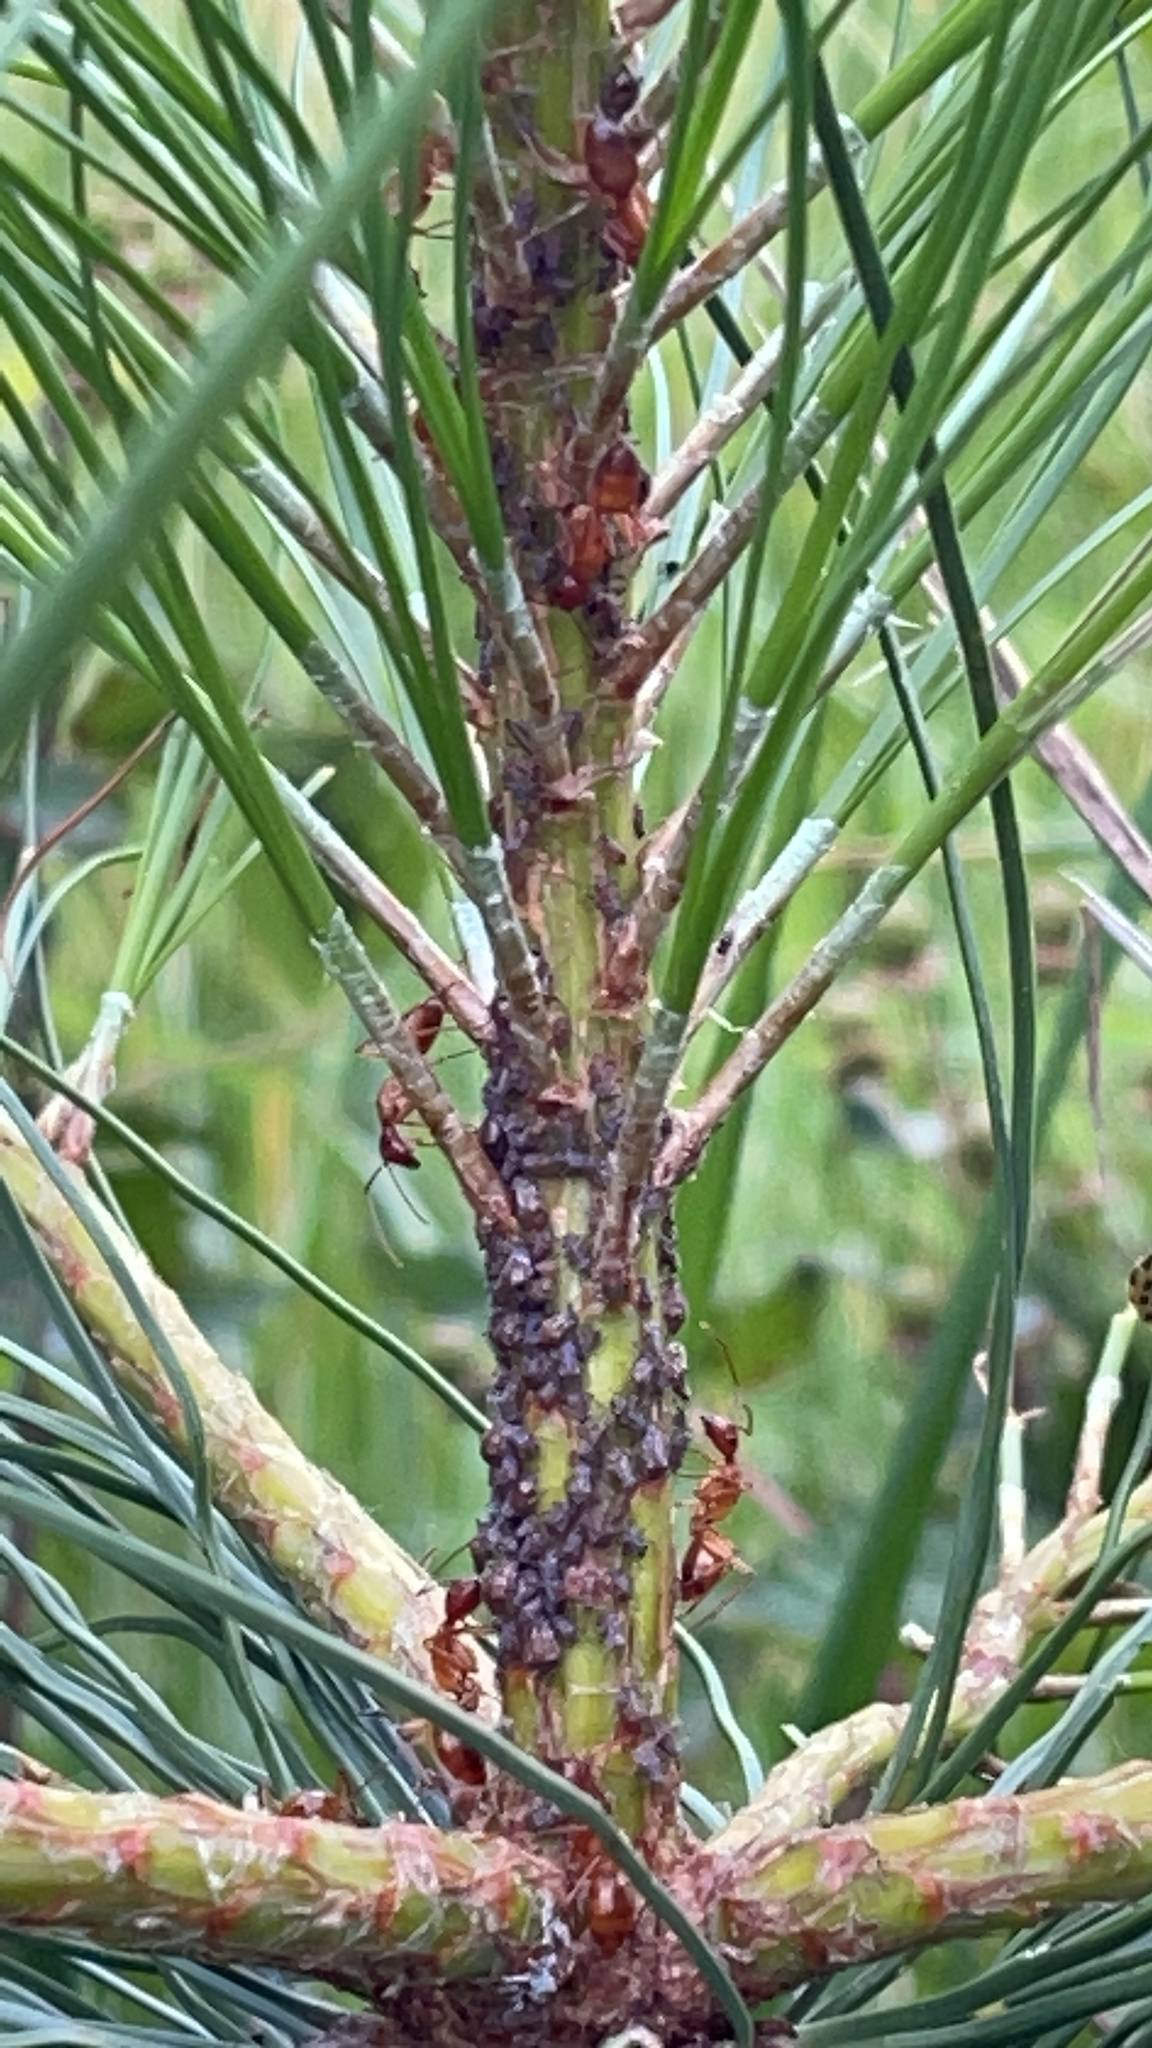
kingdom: Animalia
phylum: Arthropoda
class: Insecta
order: Hymenoptera
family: Formicidae
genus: Camponotus
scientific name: Camponotus castaneus
